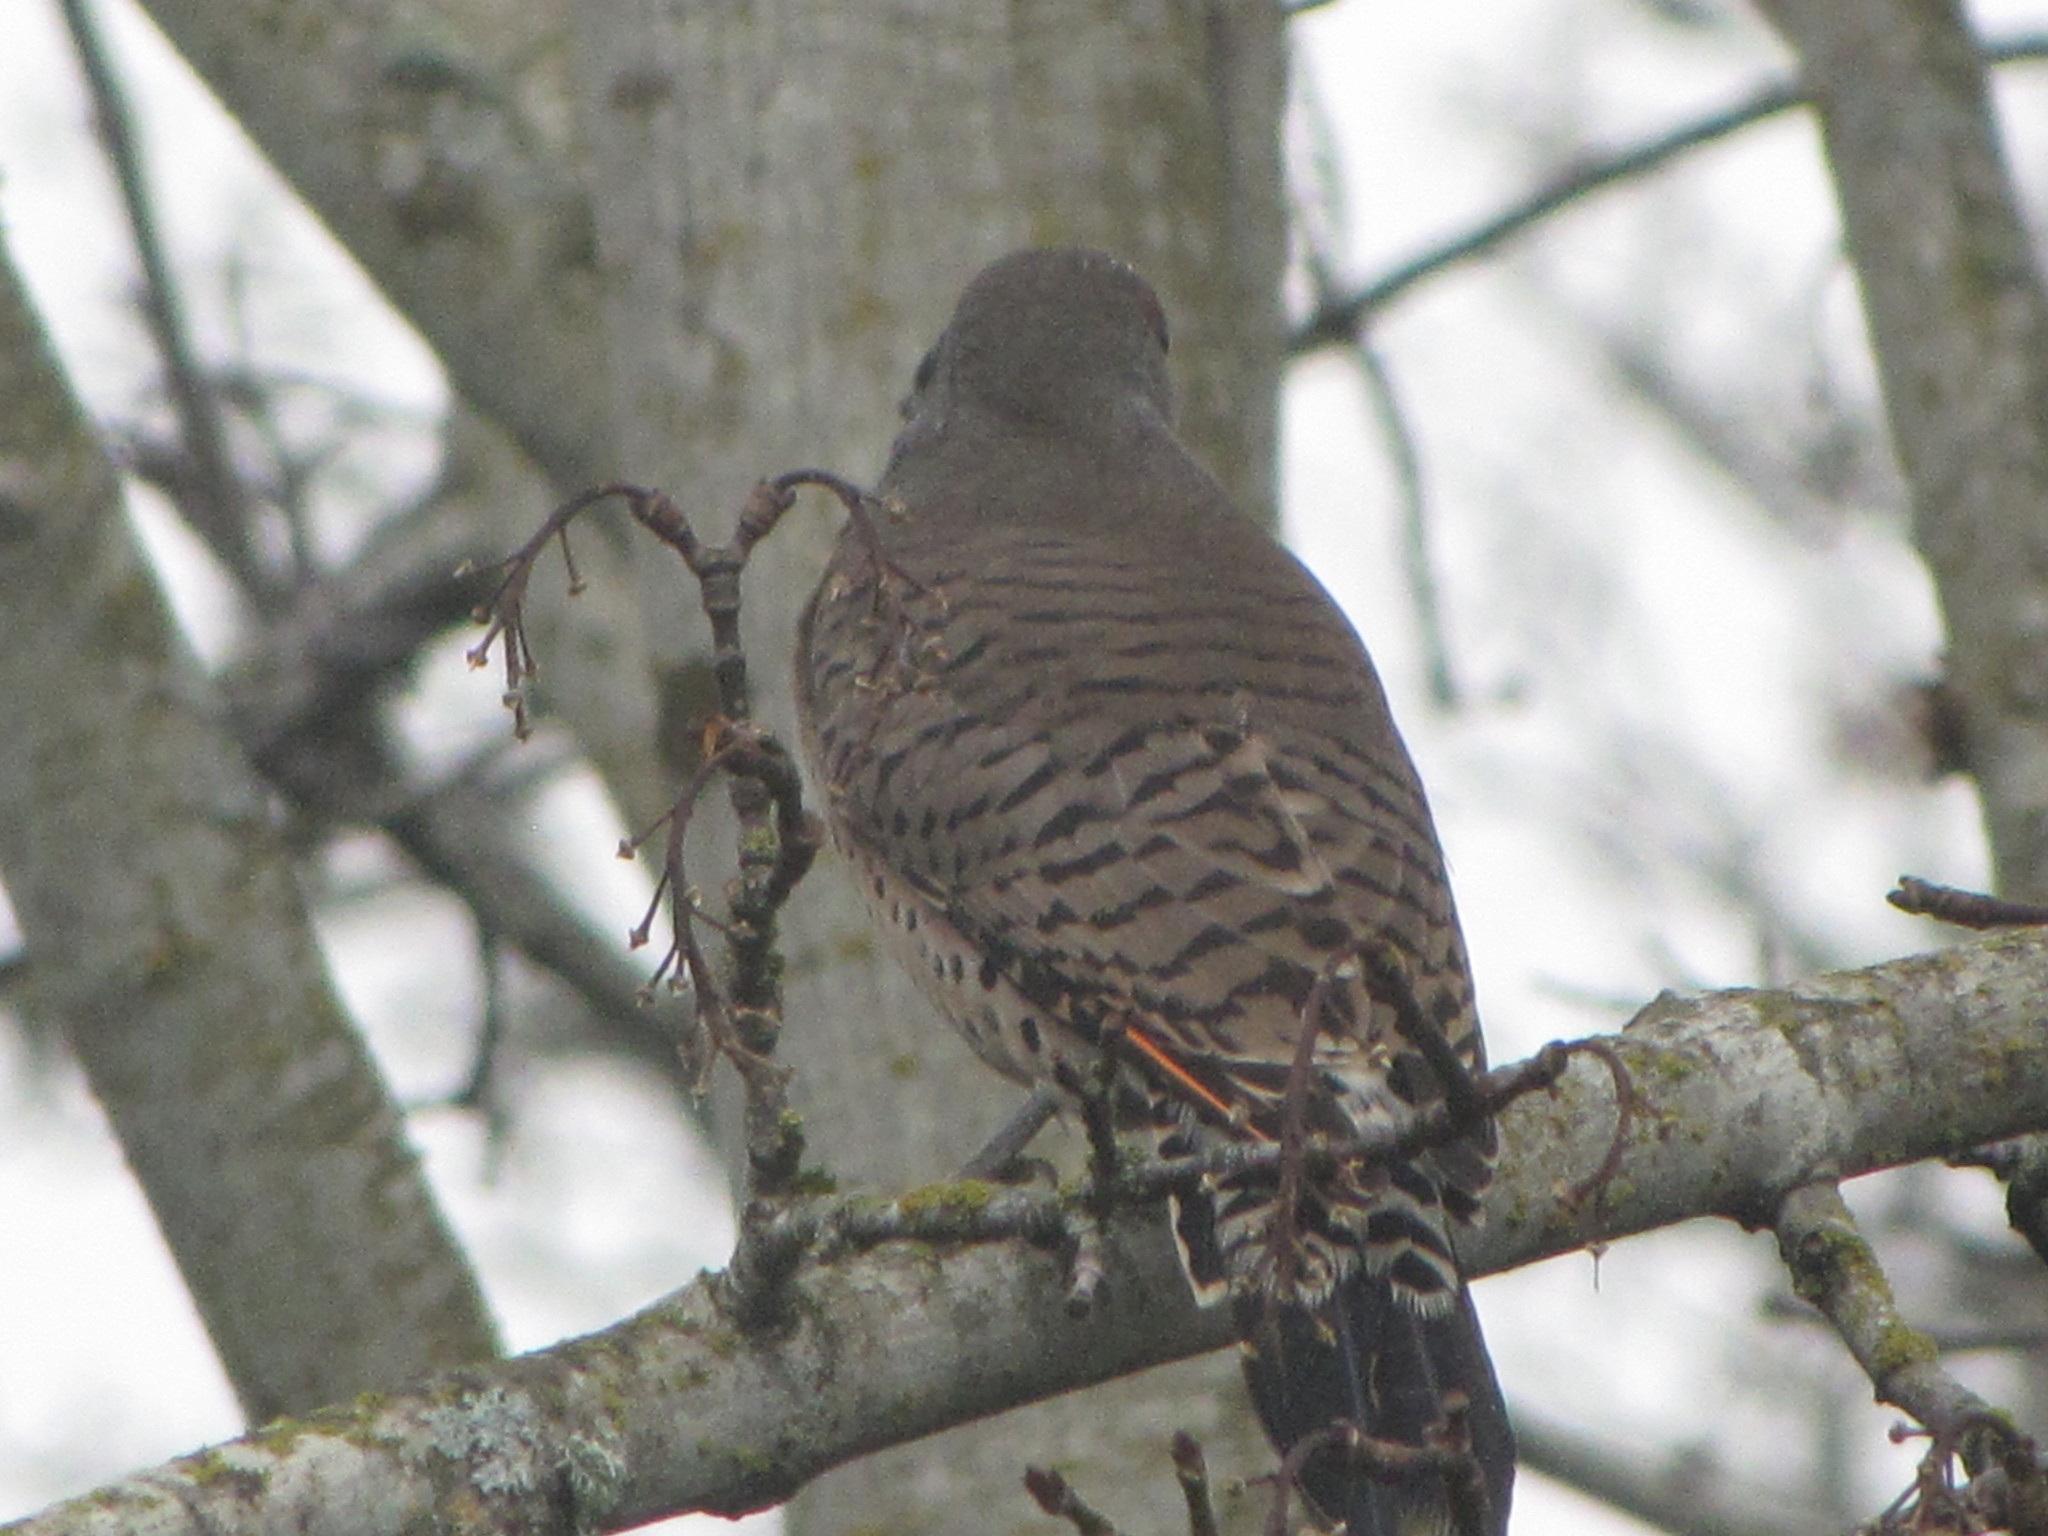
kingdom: Animalia
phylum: Chordata
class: Aves
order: Piciformes
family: Picidae
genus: Colaptes
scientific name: Colaptes auratus
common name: Northern flicker
